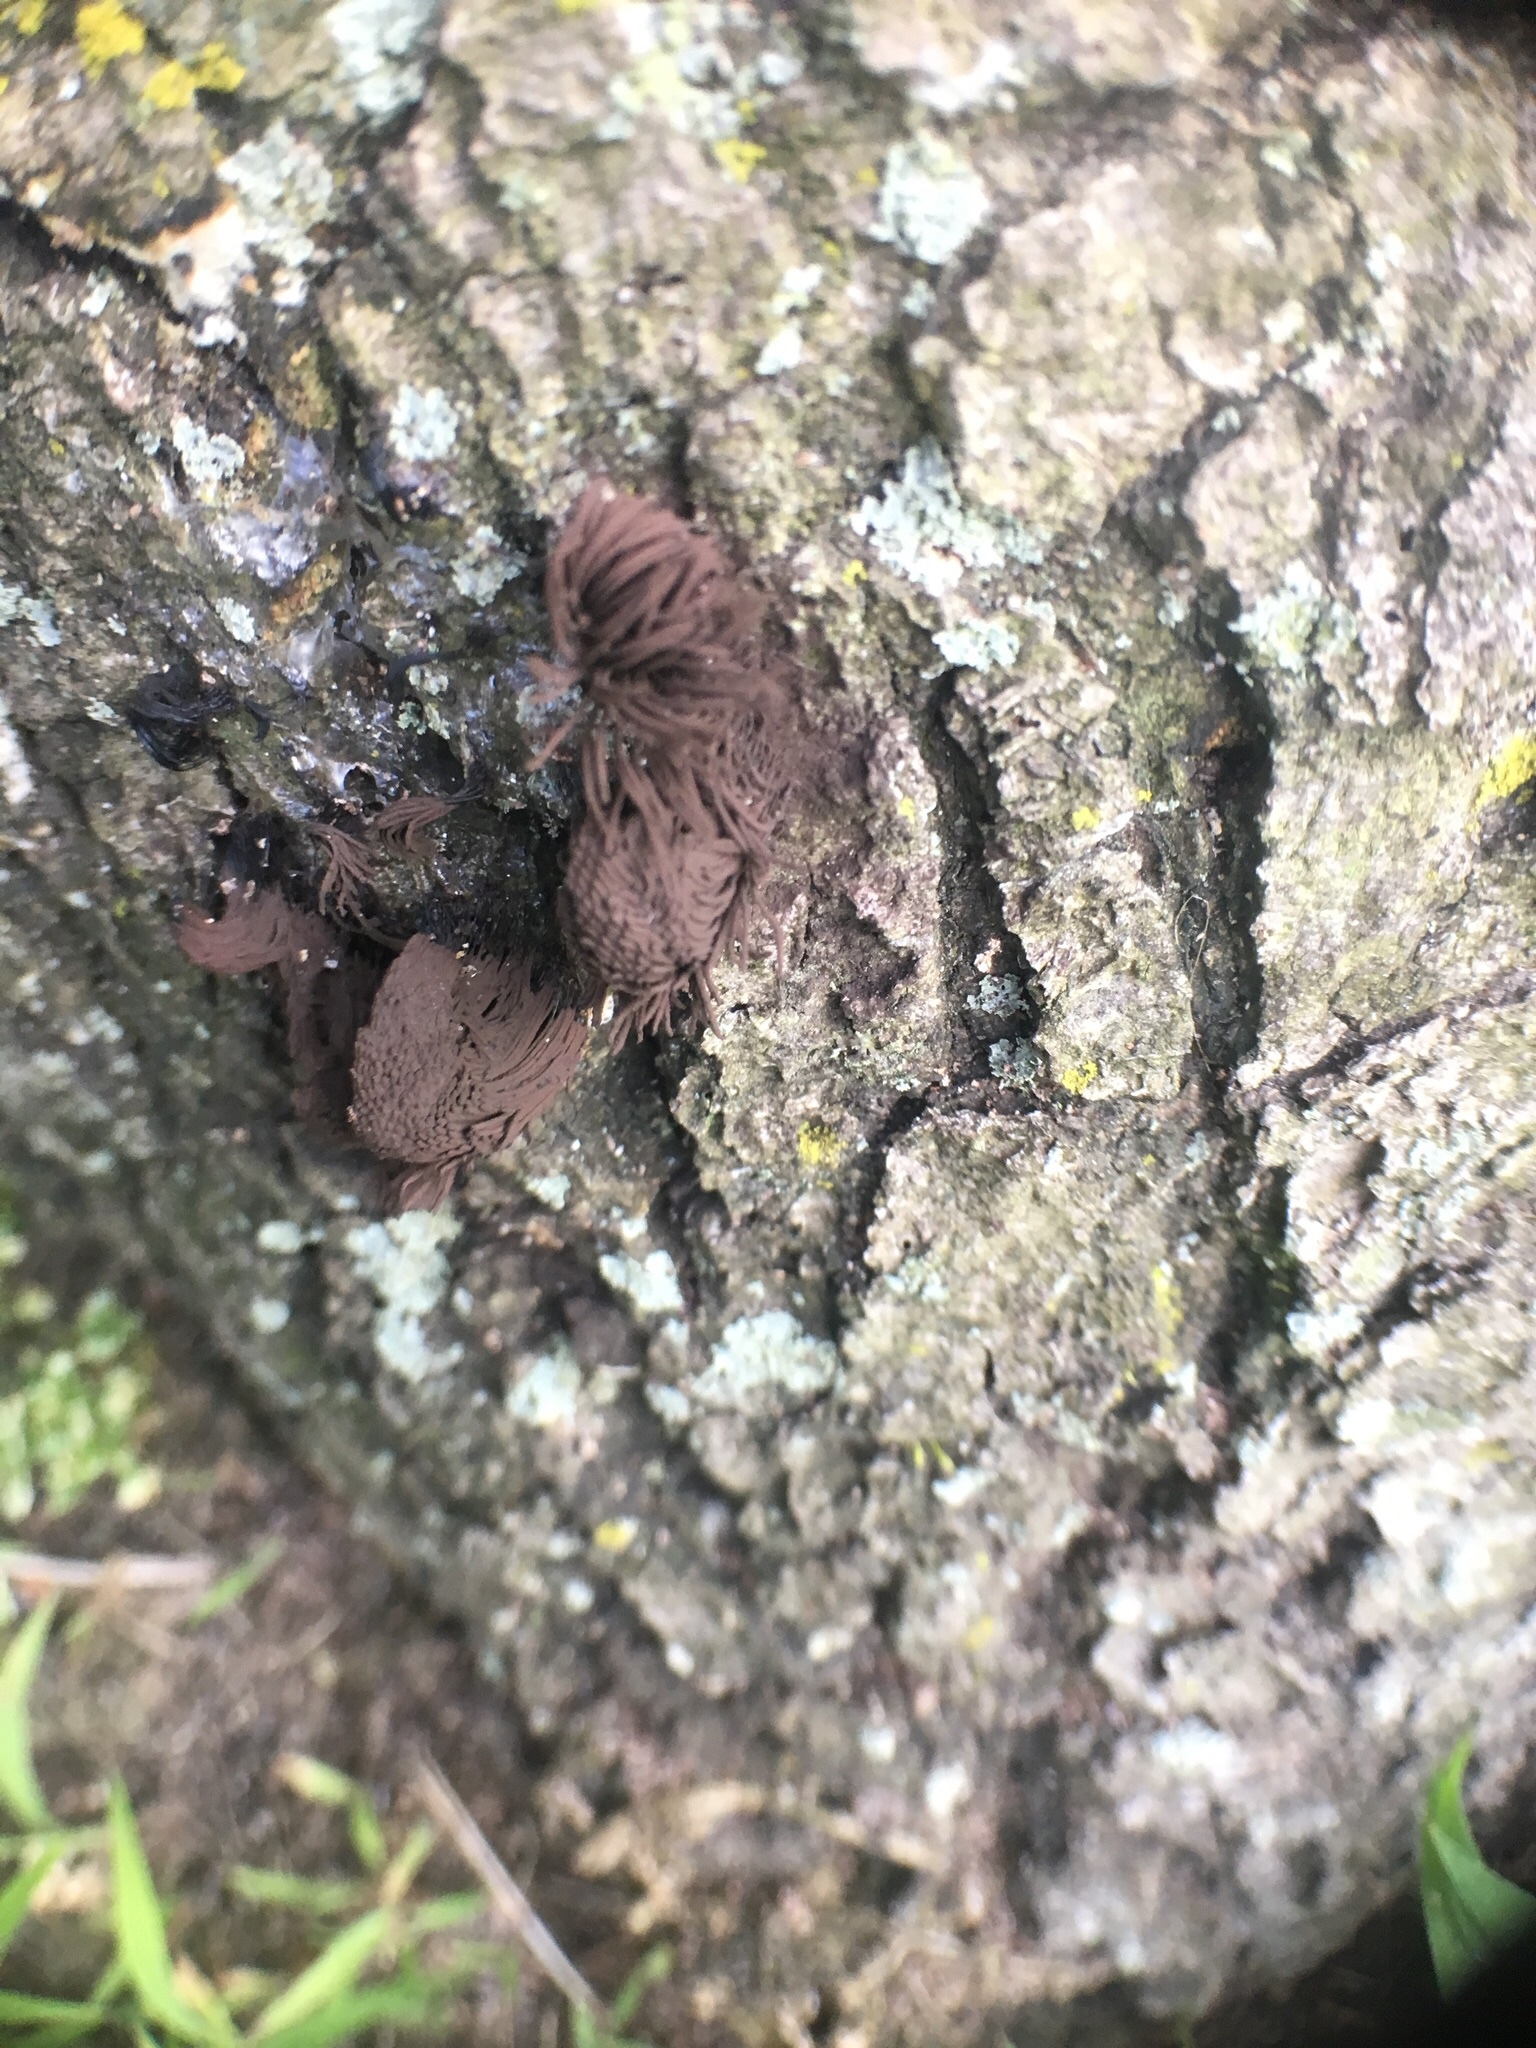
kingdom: Protozoa
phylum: Mycetozoa
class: Myxomycetes
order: Stemonitidales
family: Stemonitidaceae
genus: Stemonitis
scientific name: Stemonitis splendens
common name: Chocolate tube slime
